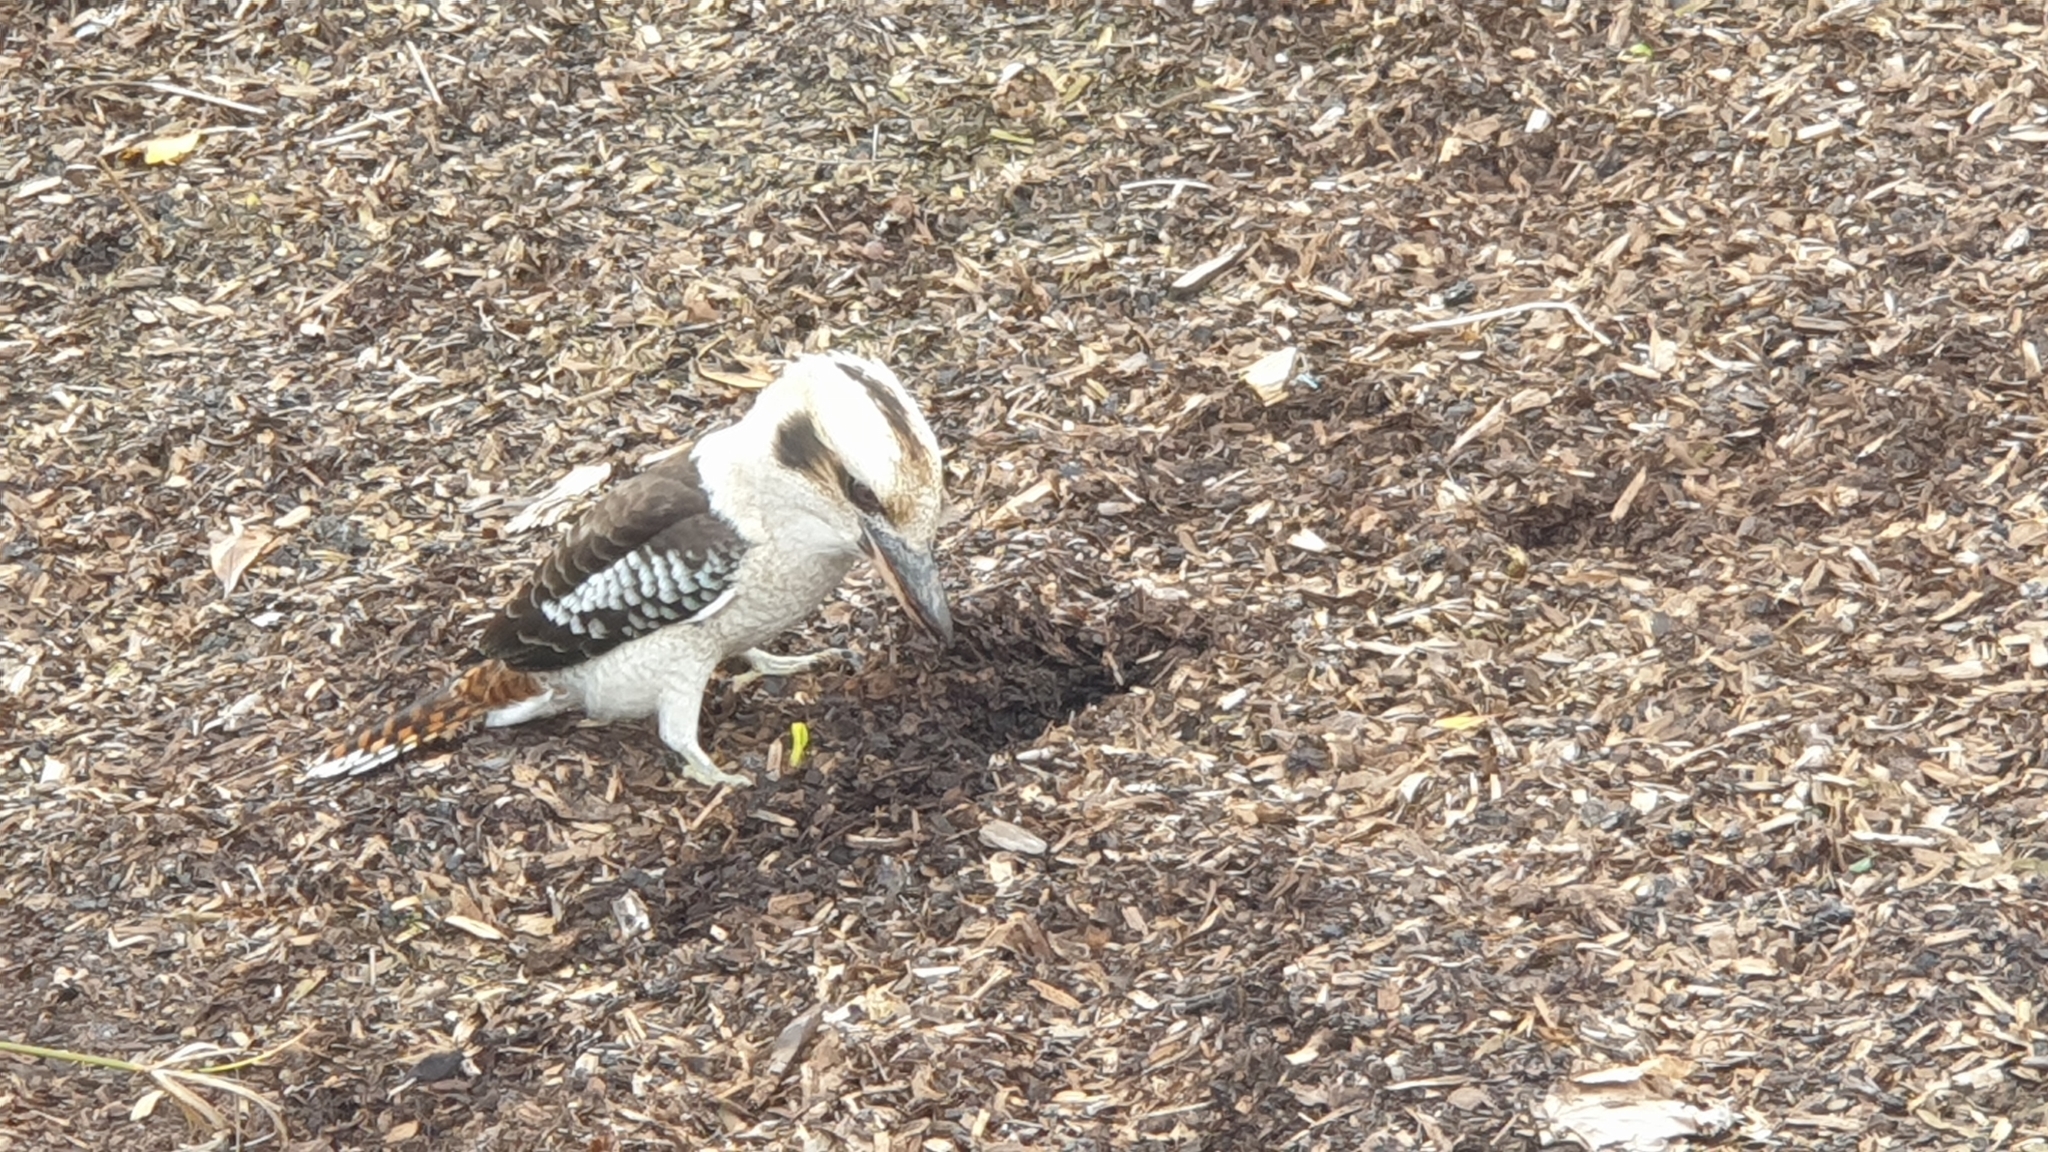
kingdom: Animalia
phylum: Chordata
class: Aves
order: Coraciiformes
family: Alcedinidae
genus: Dacelo
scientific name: Dacelo novaeguineae
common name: Laughing kookaburra
